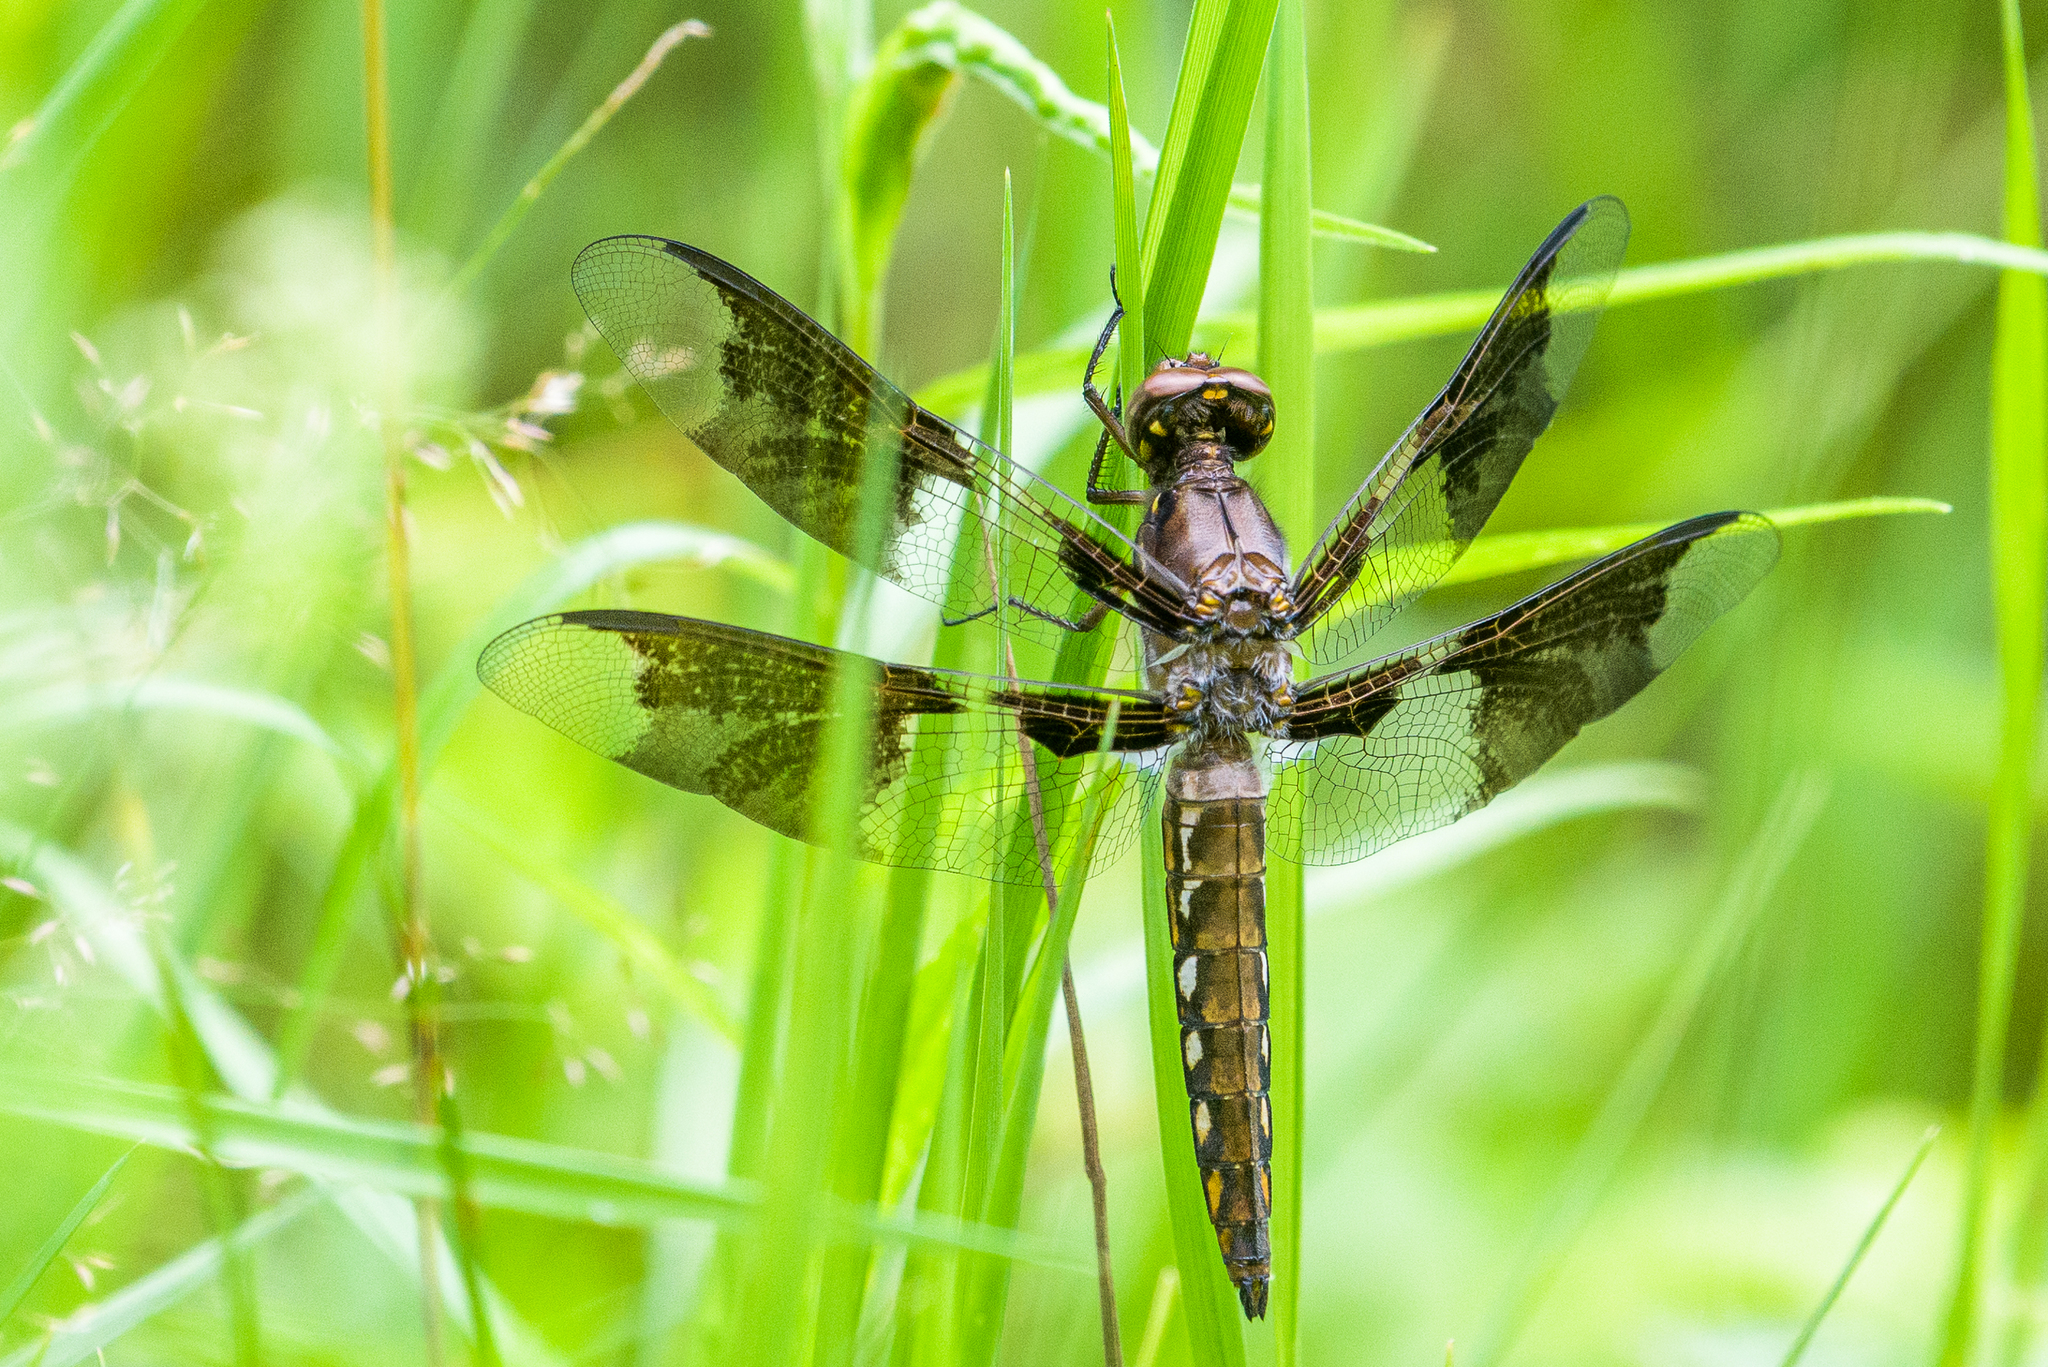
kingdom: Animalia
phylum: Arthropoda
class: Insecta
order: Odonata
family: Libellulidae
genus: Plathemis
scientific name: Plathemis lydia
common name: Common whitetail
